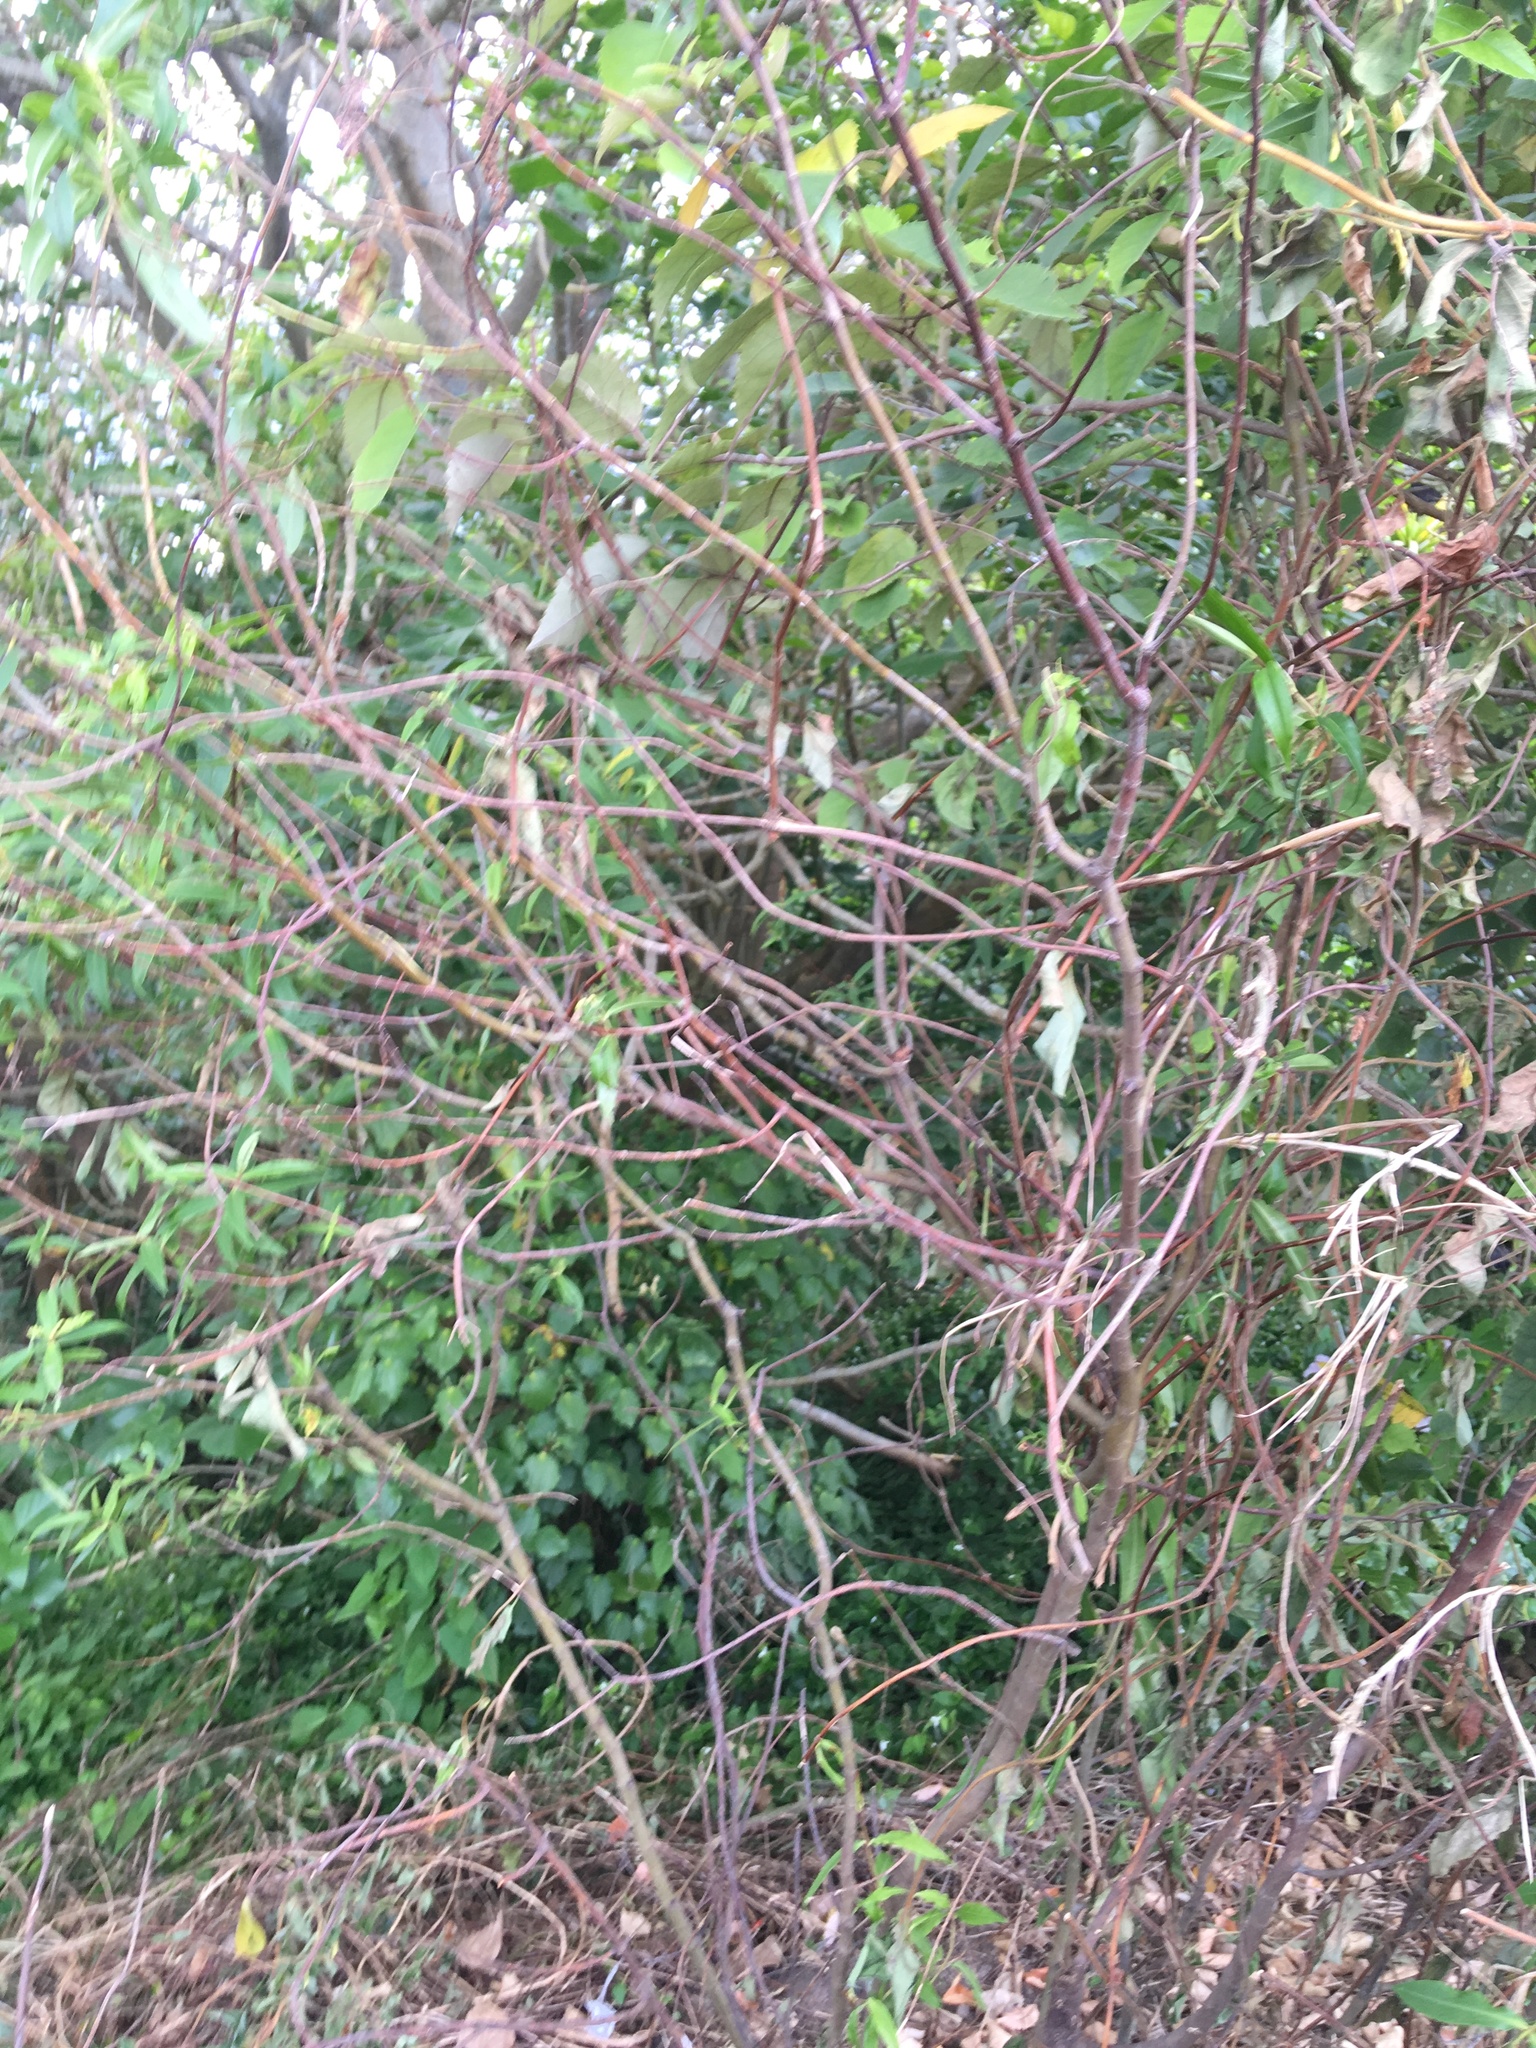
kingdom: Plantae
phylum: Tracheophyta
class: Magnoliopsida
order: Lamiales
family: Plantaginaceae
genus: Veronica
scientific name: Veronica stricta
